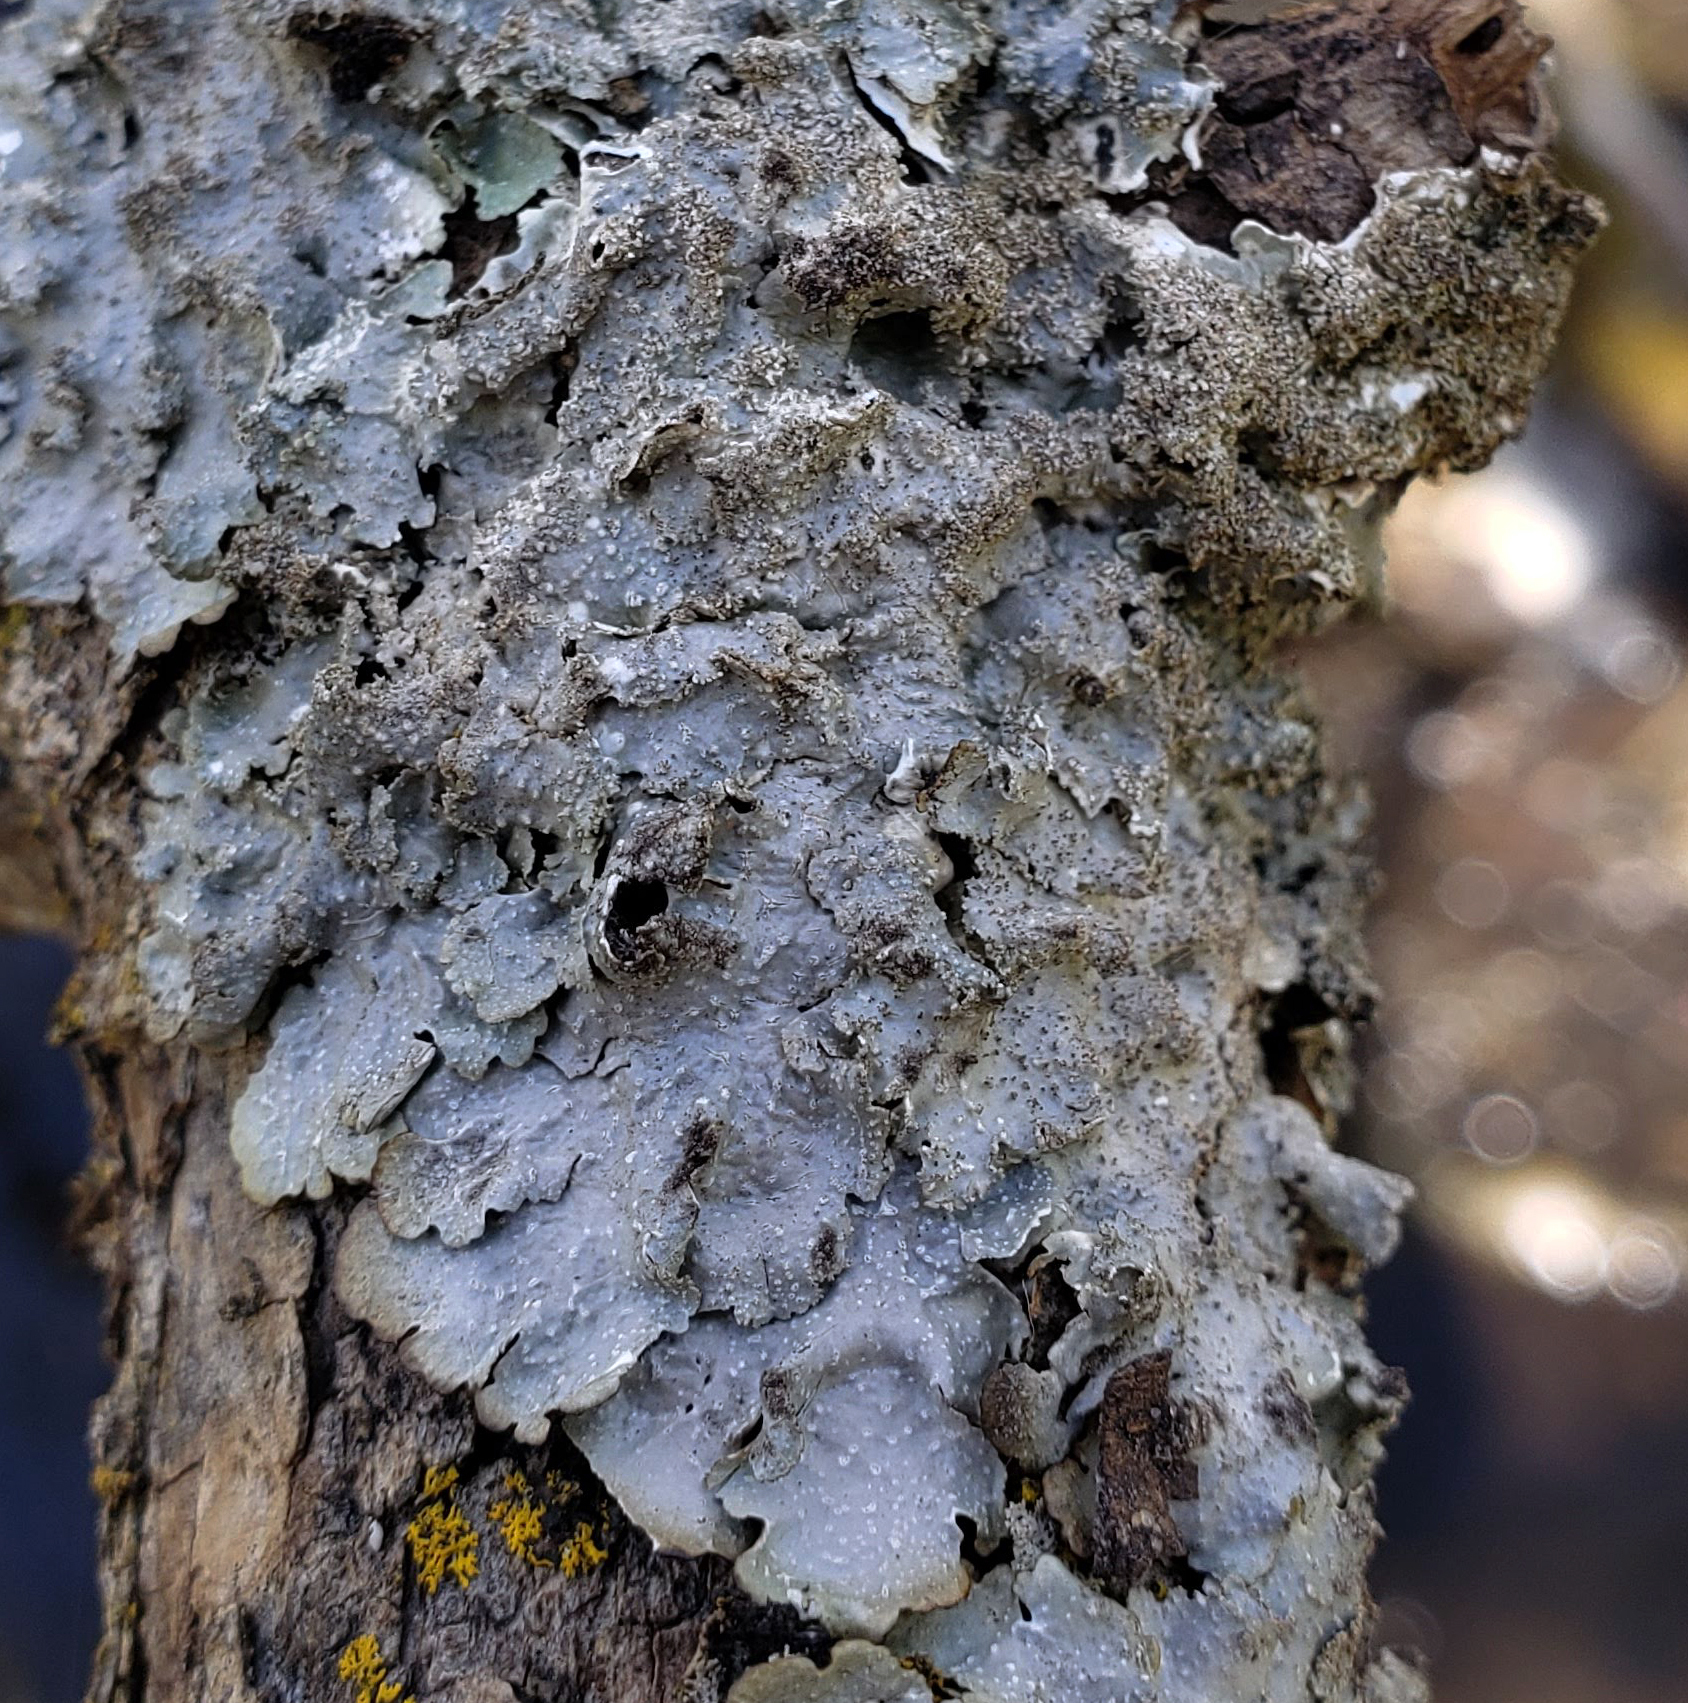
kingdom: Fungi
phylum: Ascomycota
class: Lecanoromycetes
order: Lecanorales
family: Parmeliaceae
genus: Punctelia
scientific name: Punctelia rudecta
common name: Rough speckled shield lichen
